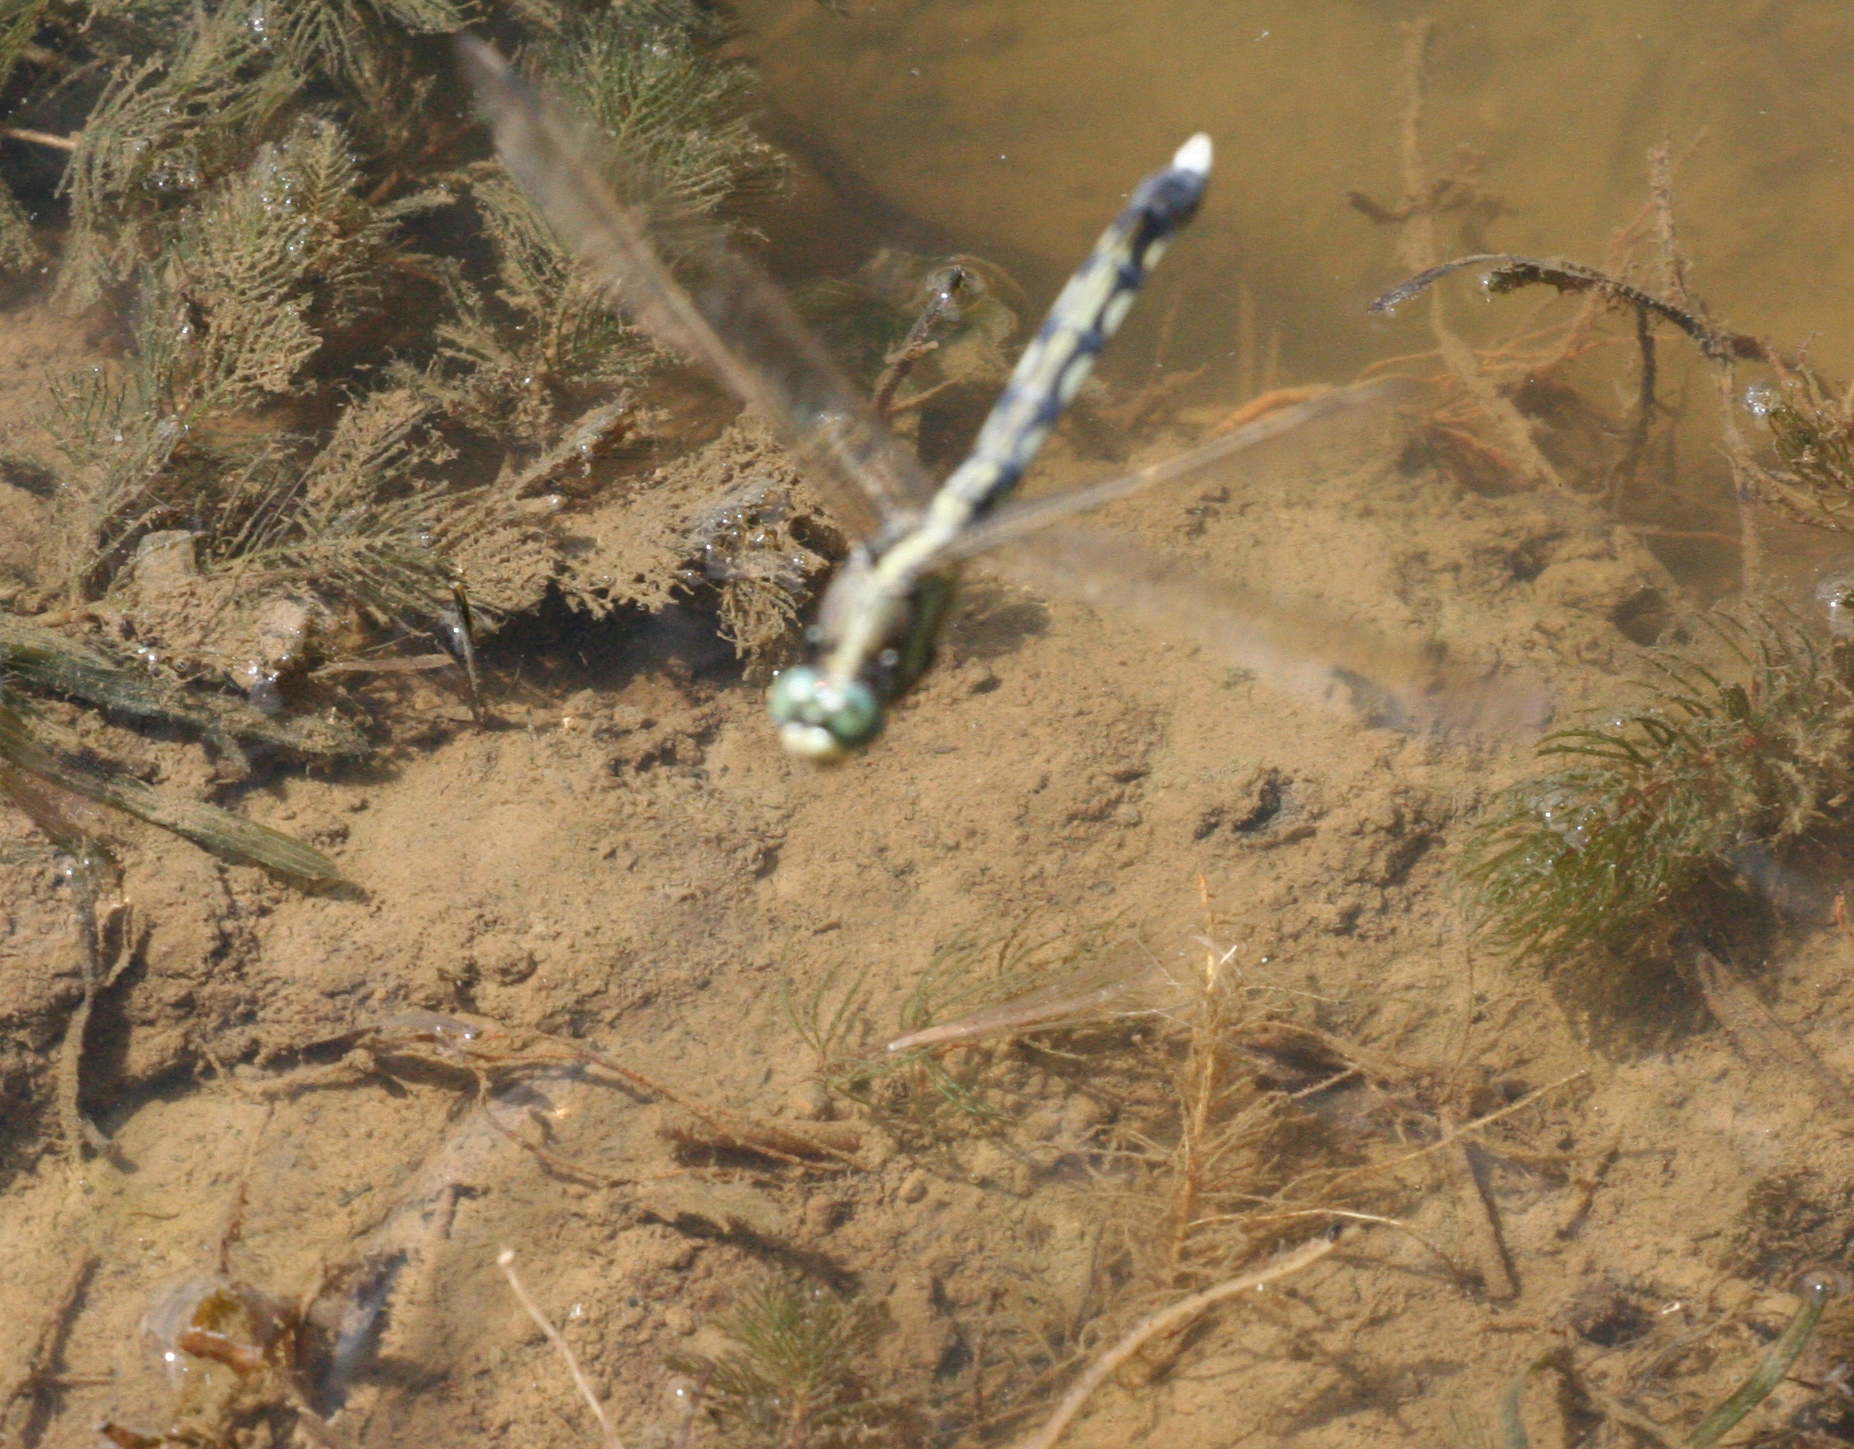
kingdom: Animalia
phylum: Arthropoda
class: Insecta
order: Odonata
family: Libellulidae
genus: Orthetrum
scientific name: Orthetrum albistylum
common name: White-tailed skimmer
